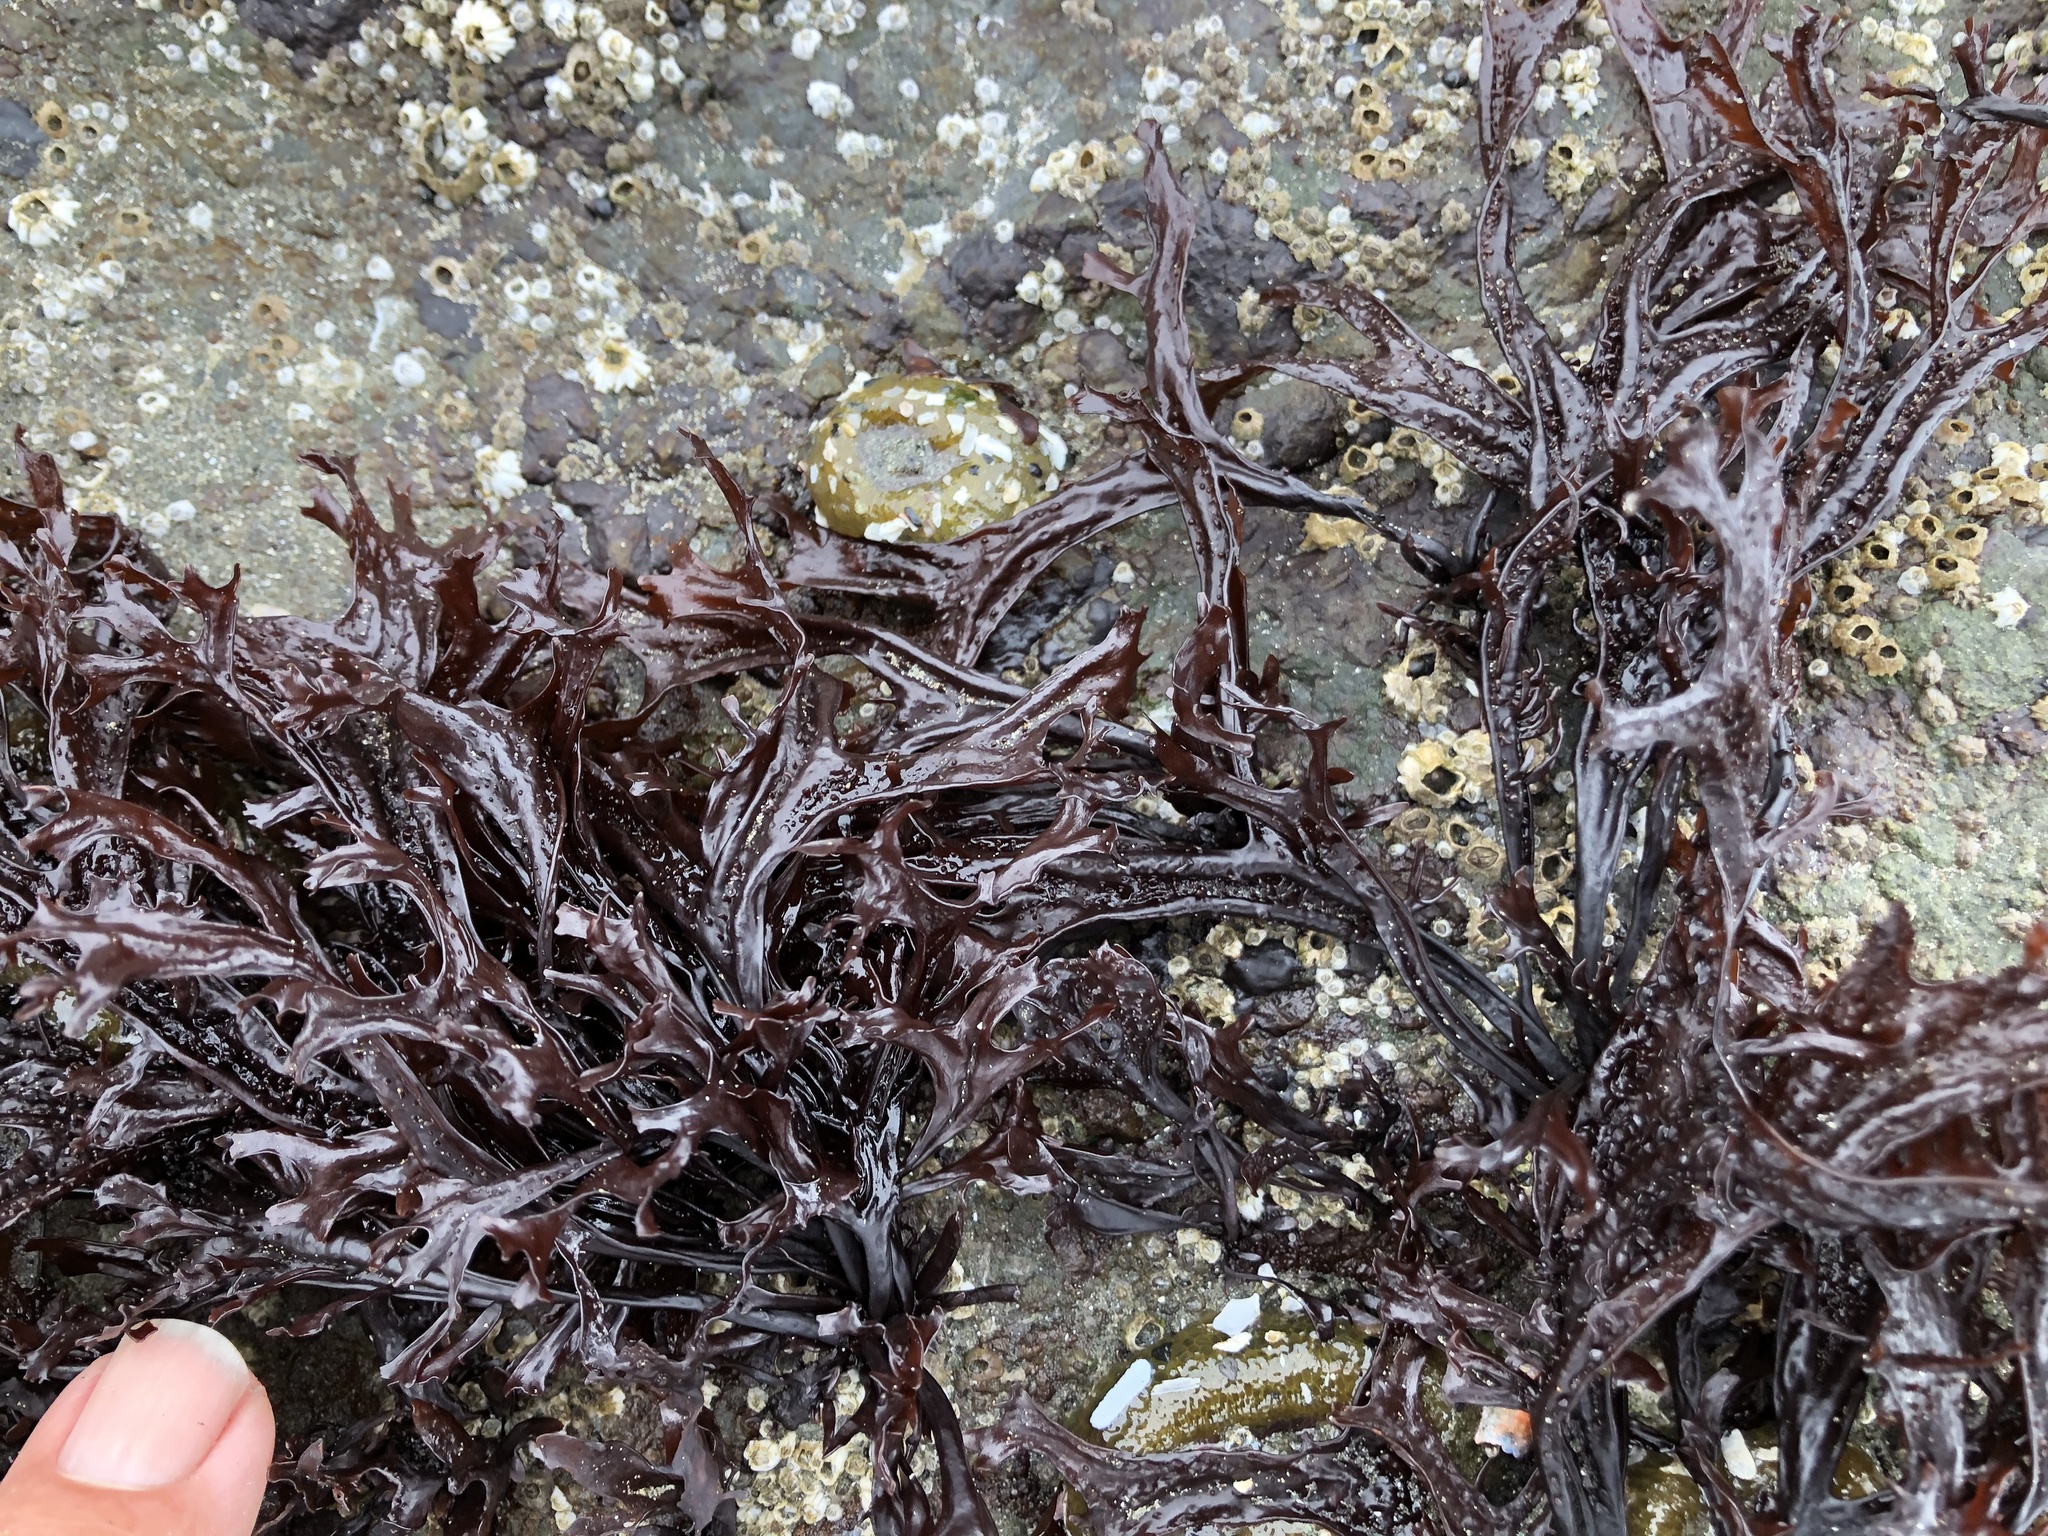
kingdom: Plantae
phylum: Rhodophyta
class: Florideophyceae
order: Gigartinales
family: Phyllophoraceae
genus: Mastocarpus
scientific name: Mastocarpus jardinii
